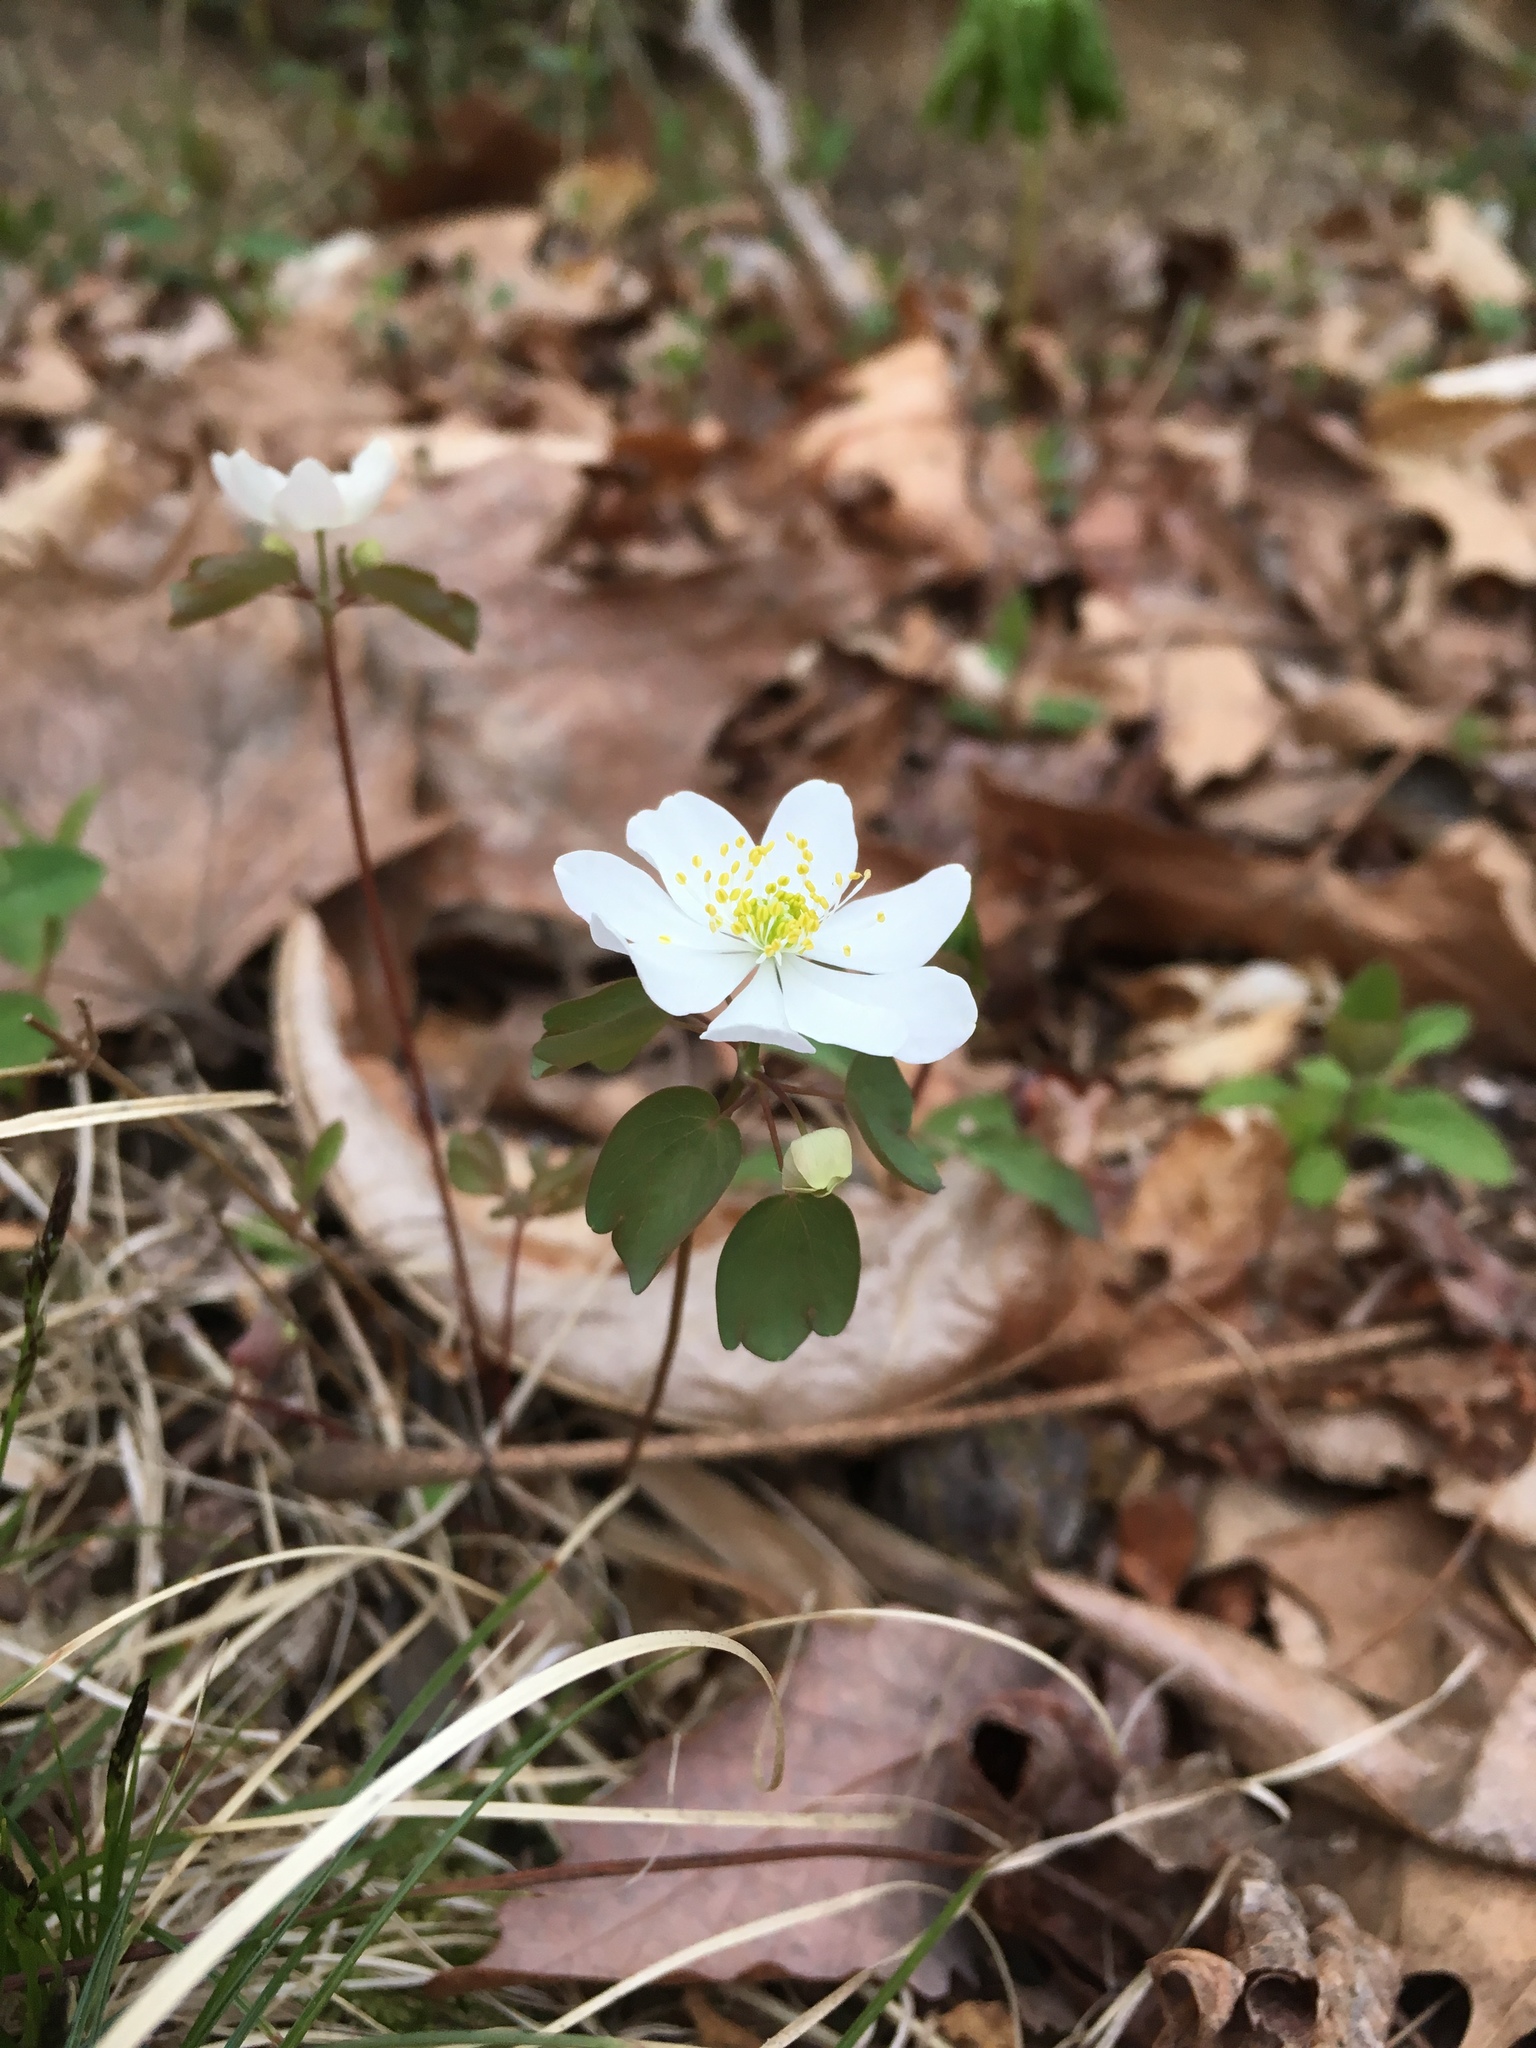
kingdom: Plantae
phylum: Tracheophyta
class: Magnoliopsida
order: Ranunculales
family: Ranunculaceae
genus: Thalictrum
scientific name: Thalictrum thalictroides
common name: Rue-anemone
